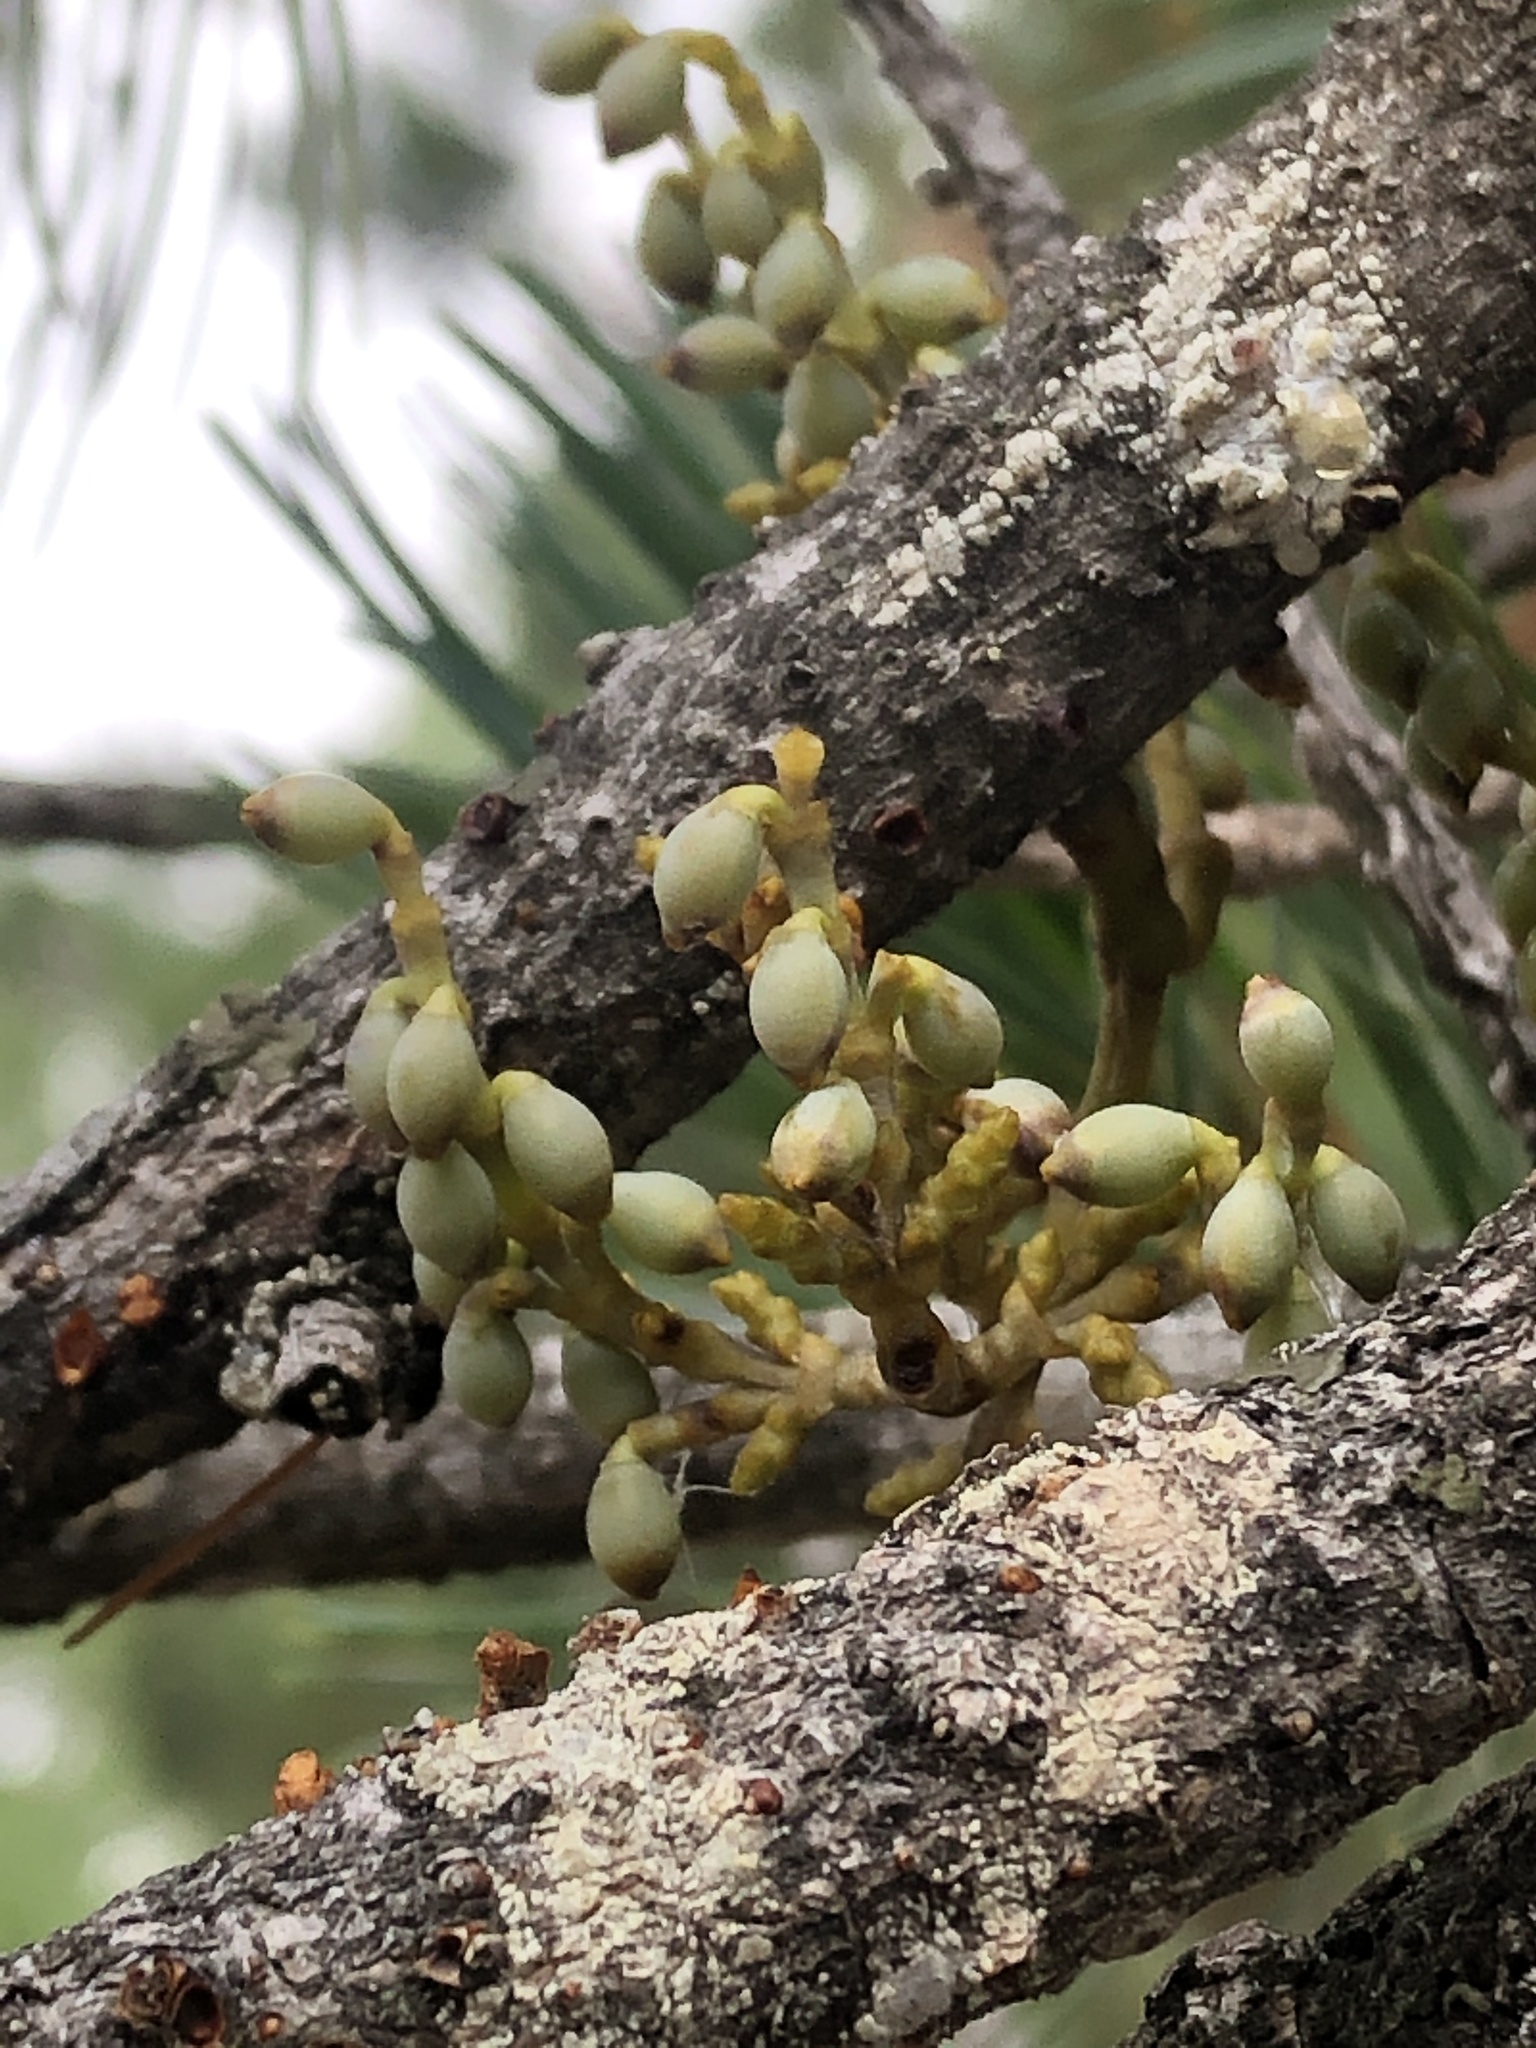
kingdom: Plantae
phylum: Tracheophyta
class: Magnoliopsida
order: Santalales
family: Viscaceae
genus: Arceuthobium
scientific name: Arceuthobium gillii
